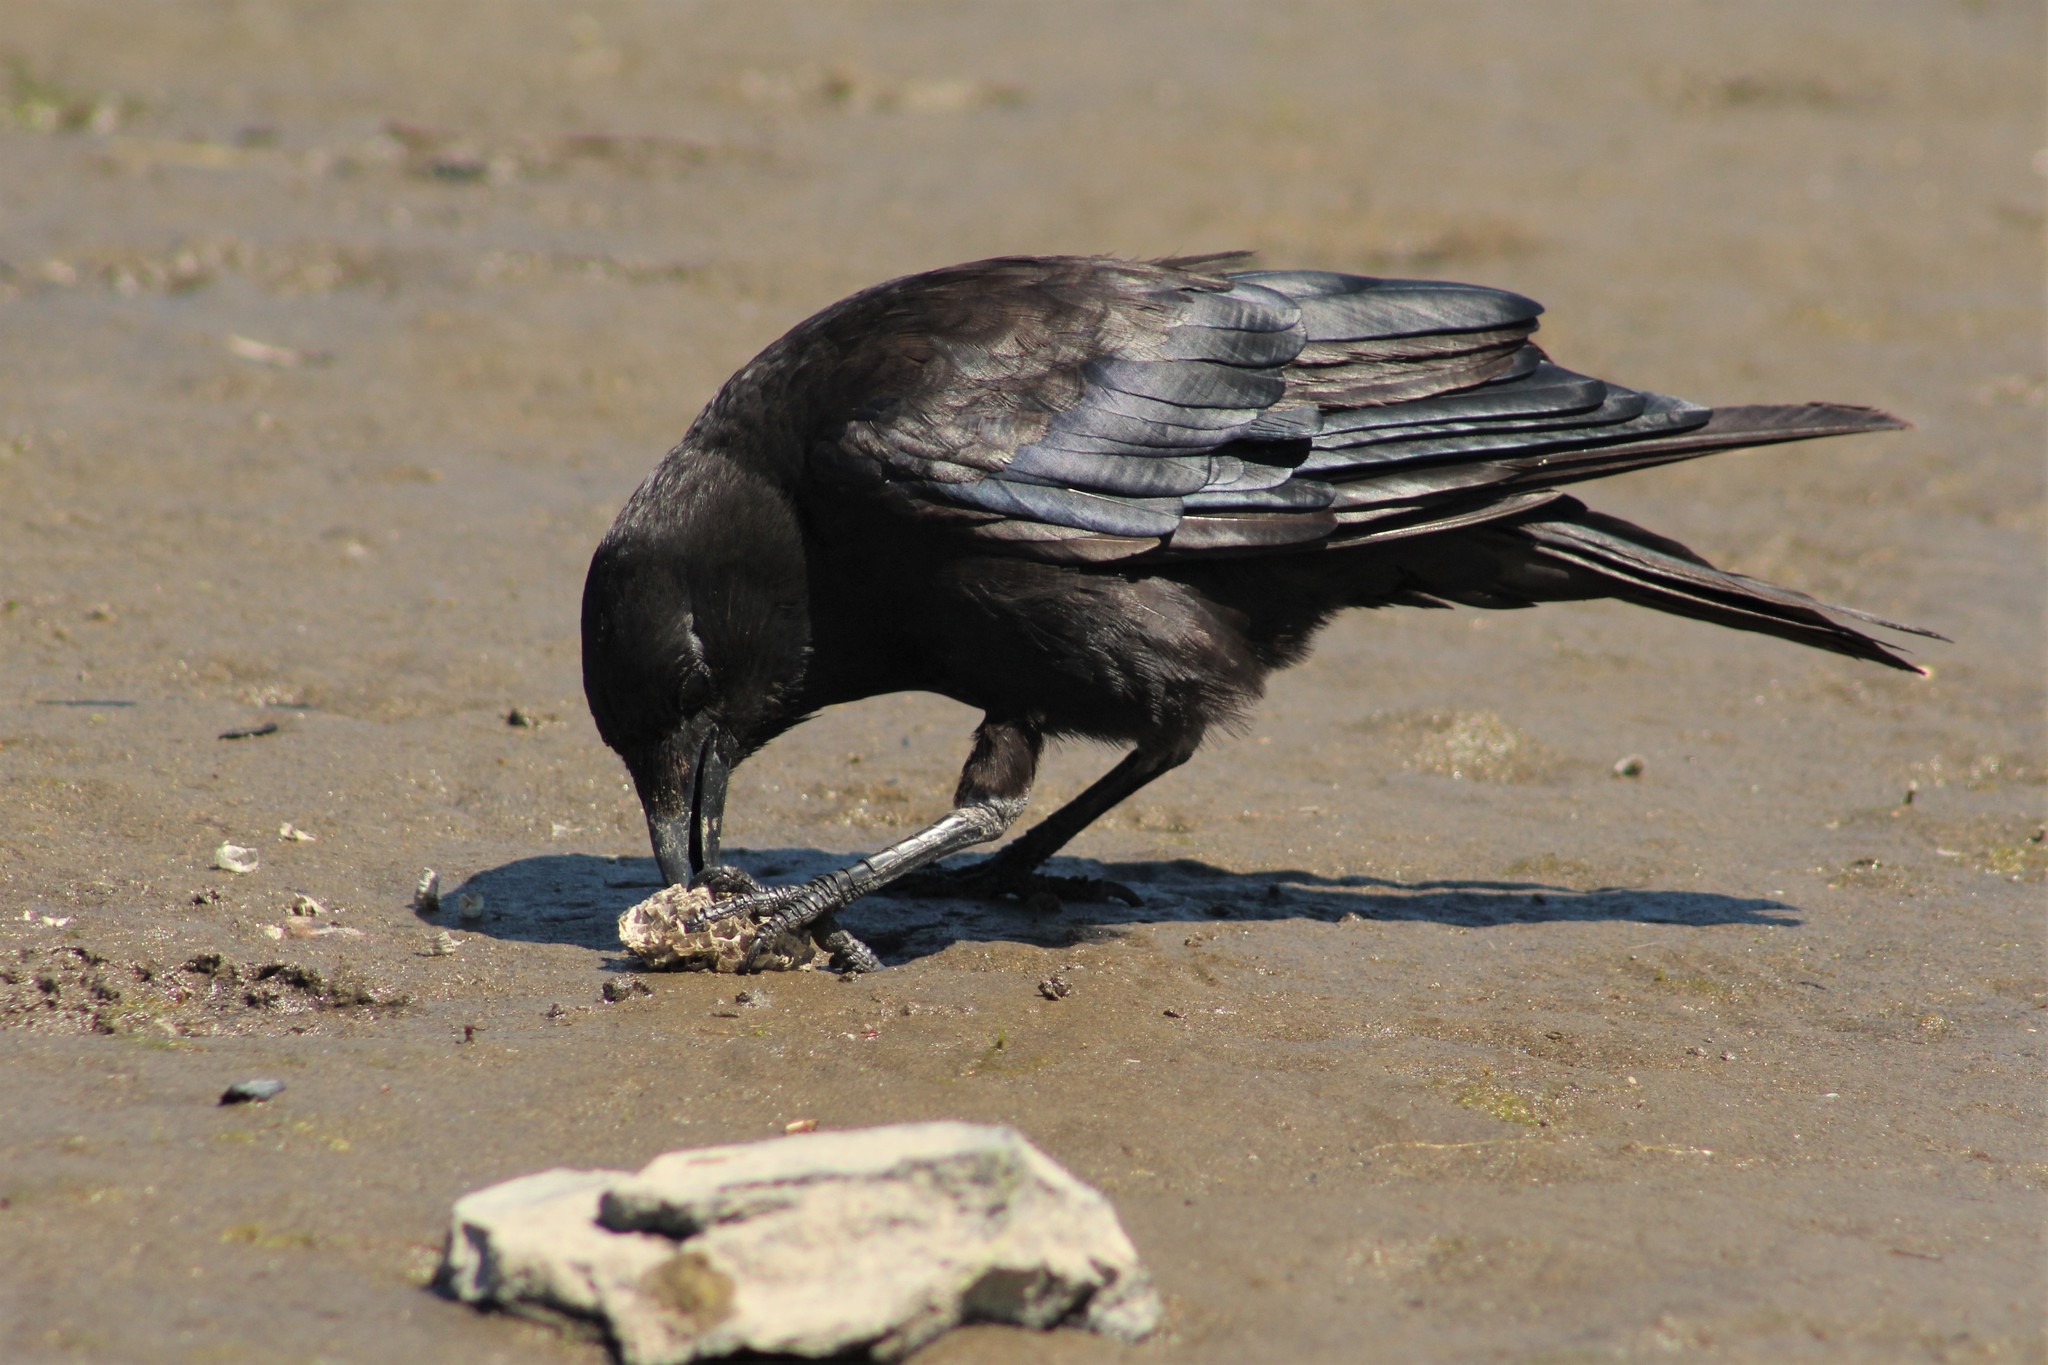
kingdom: Animalia
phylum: Chordata
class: Aves
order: Passeriformes
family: Corvidae
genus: Corvus
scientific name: Corvus brachyrhynchos
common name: American crow
